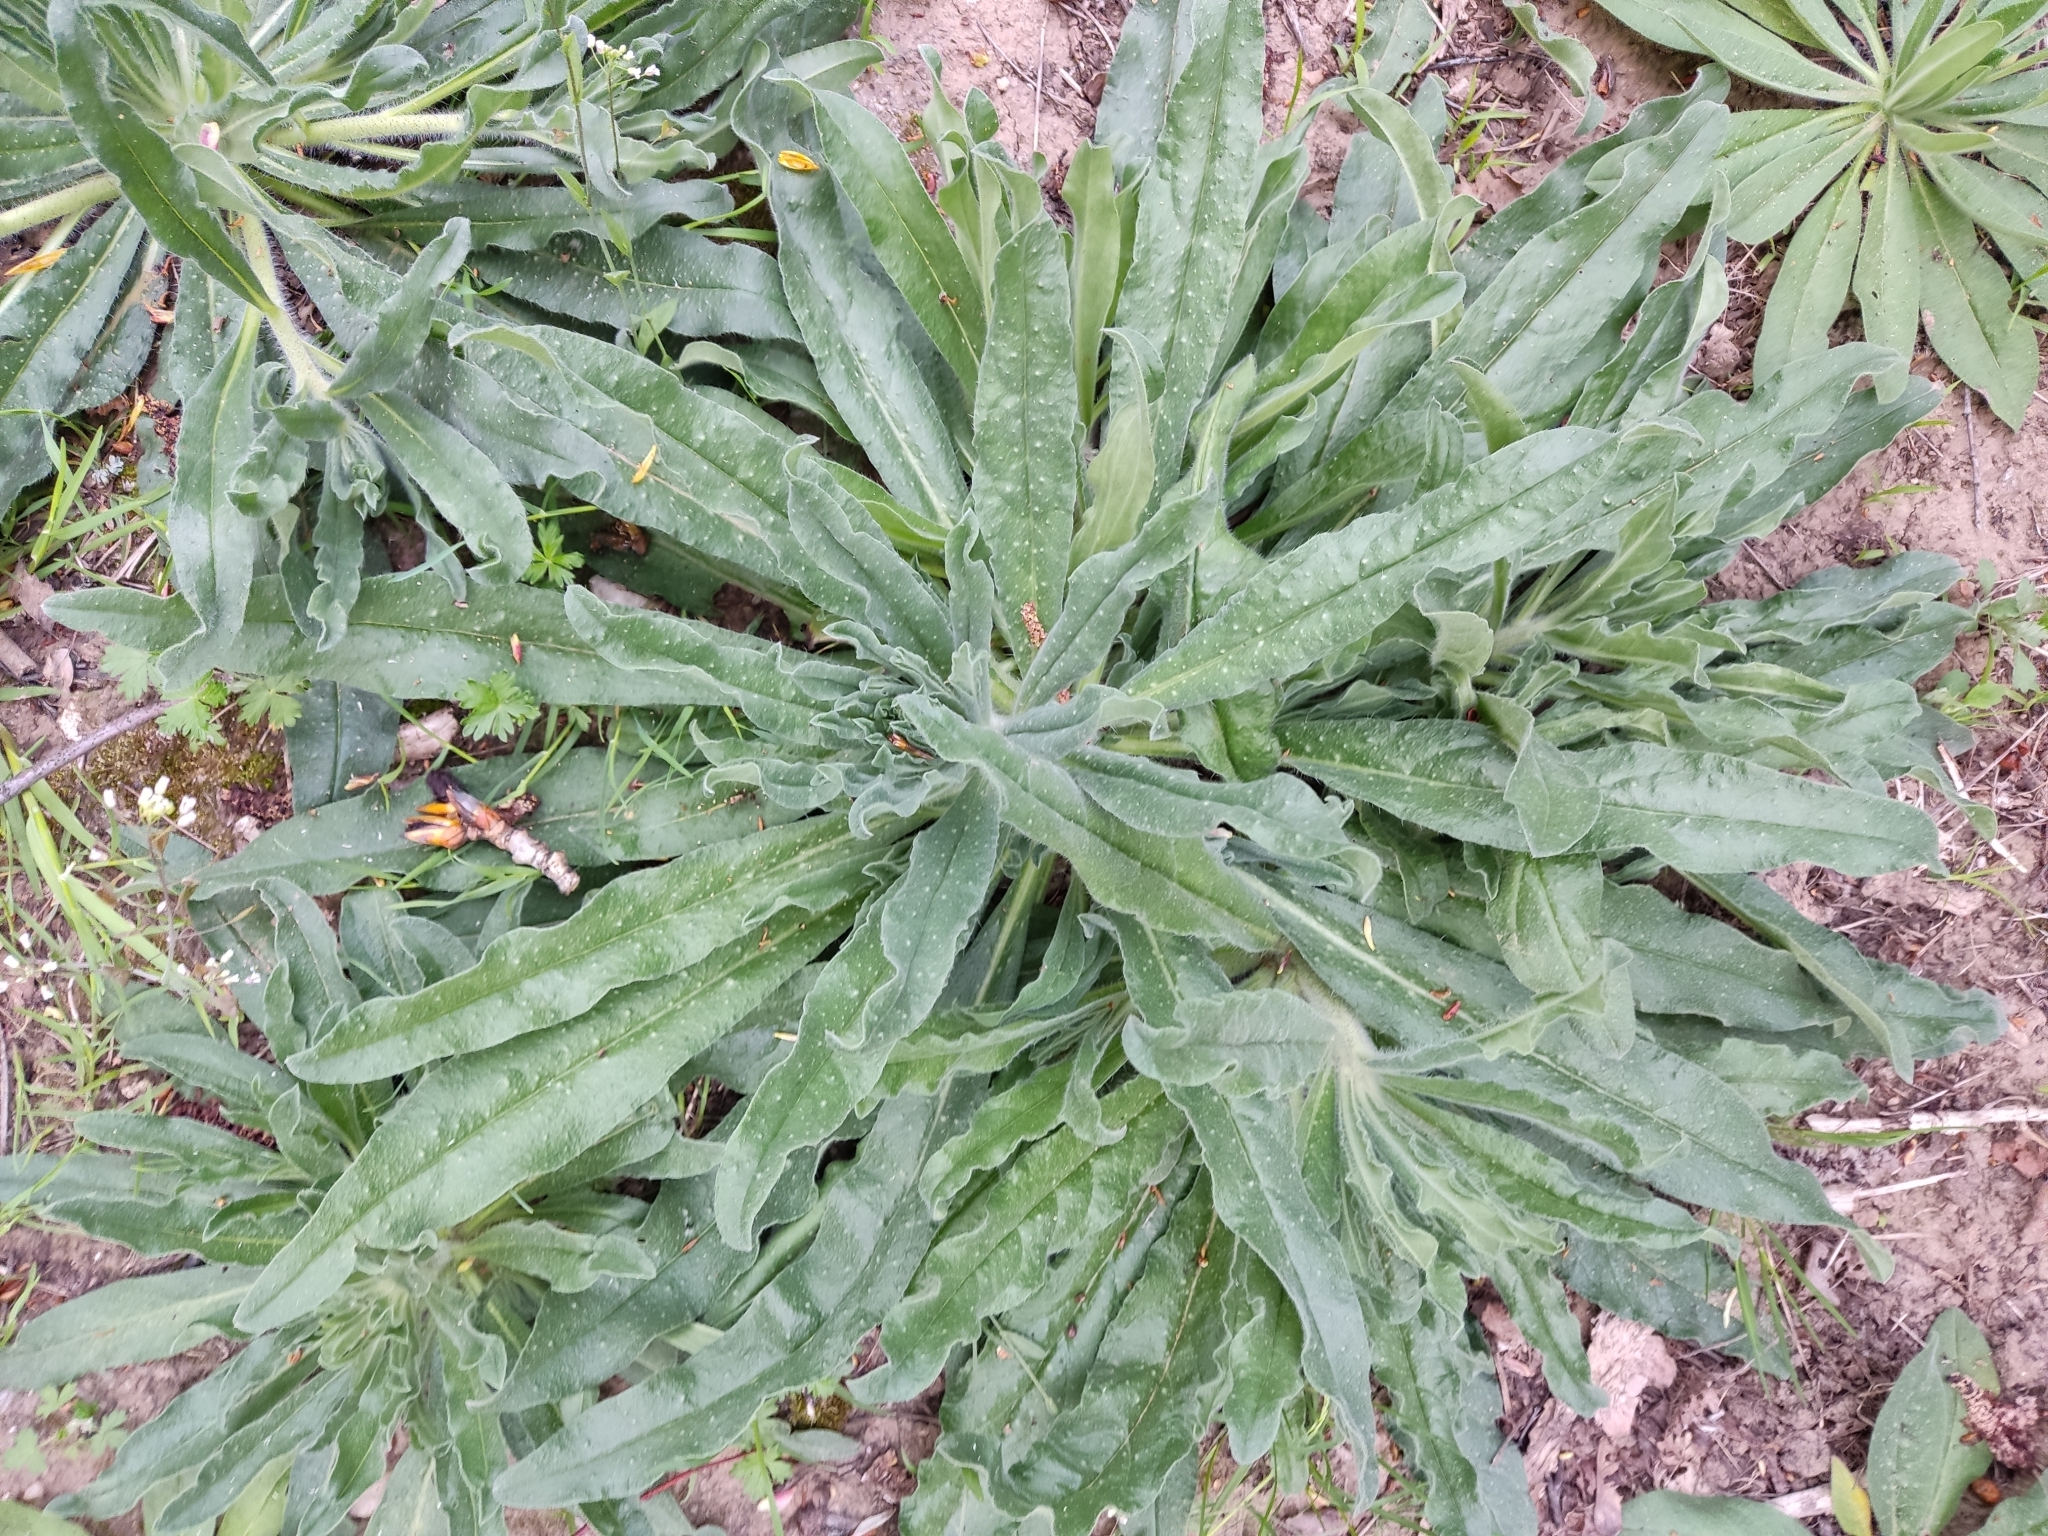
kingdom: Plantae
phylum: Tracheophyta
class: Magnoliopsida
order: Boraginales
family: Boraginaceae
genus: Echium
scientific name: Echium vulgare
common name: Common viper's bugloss
